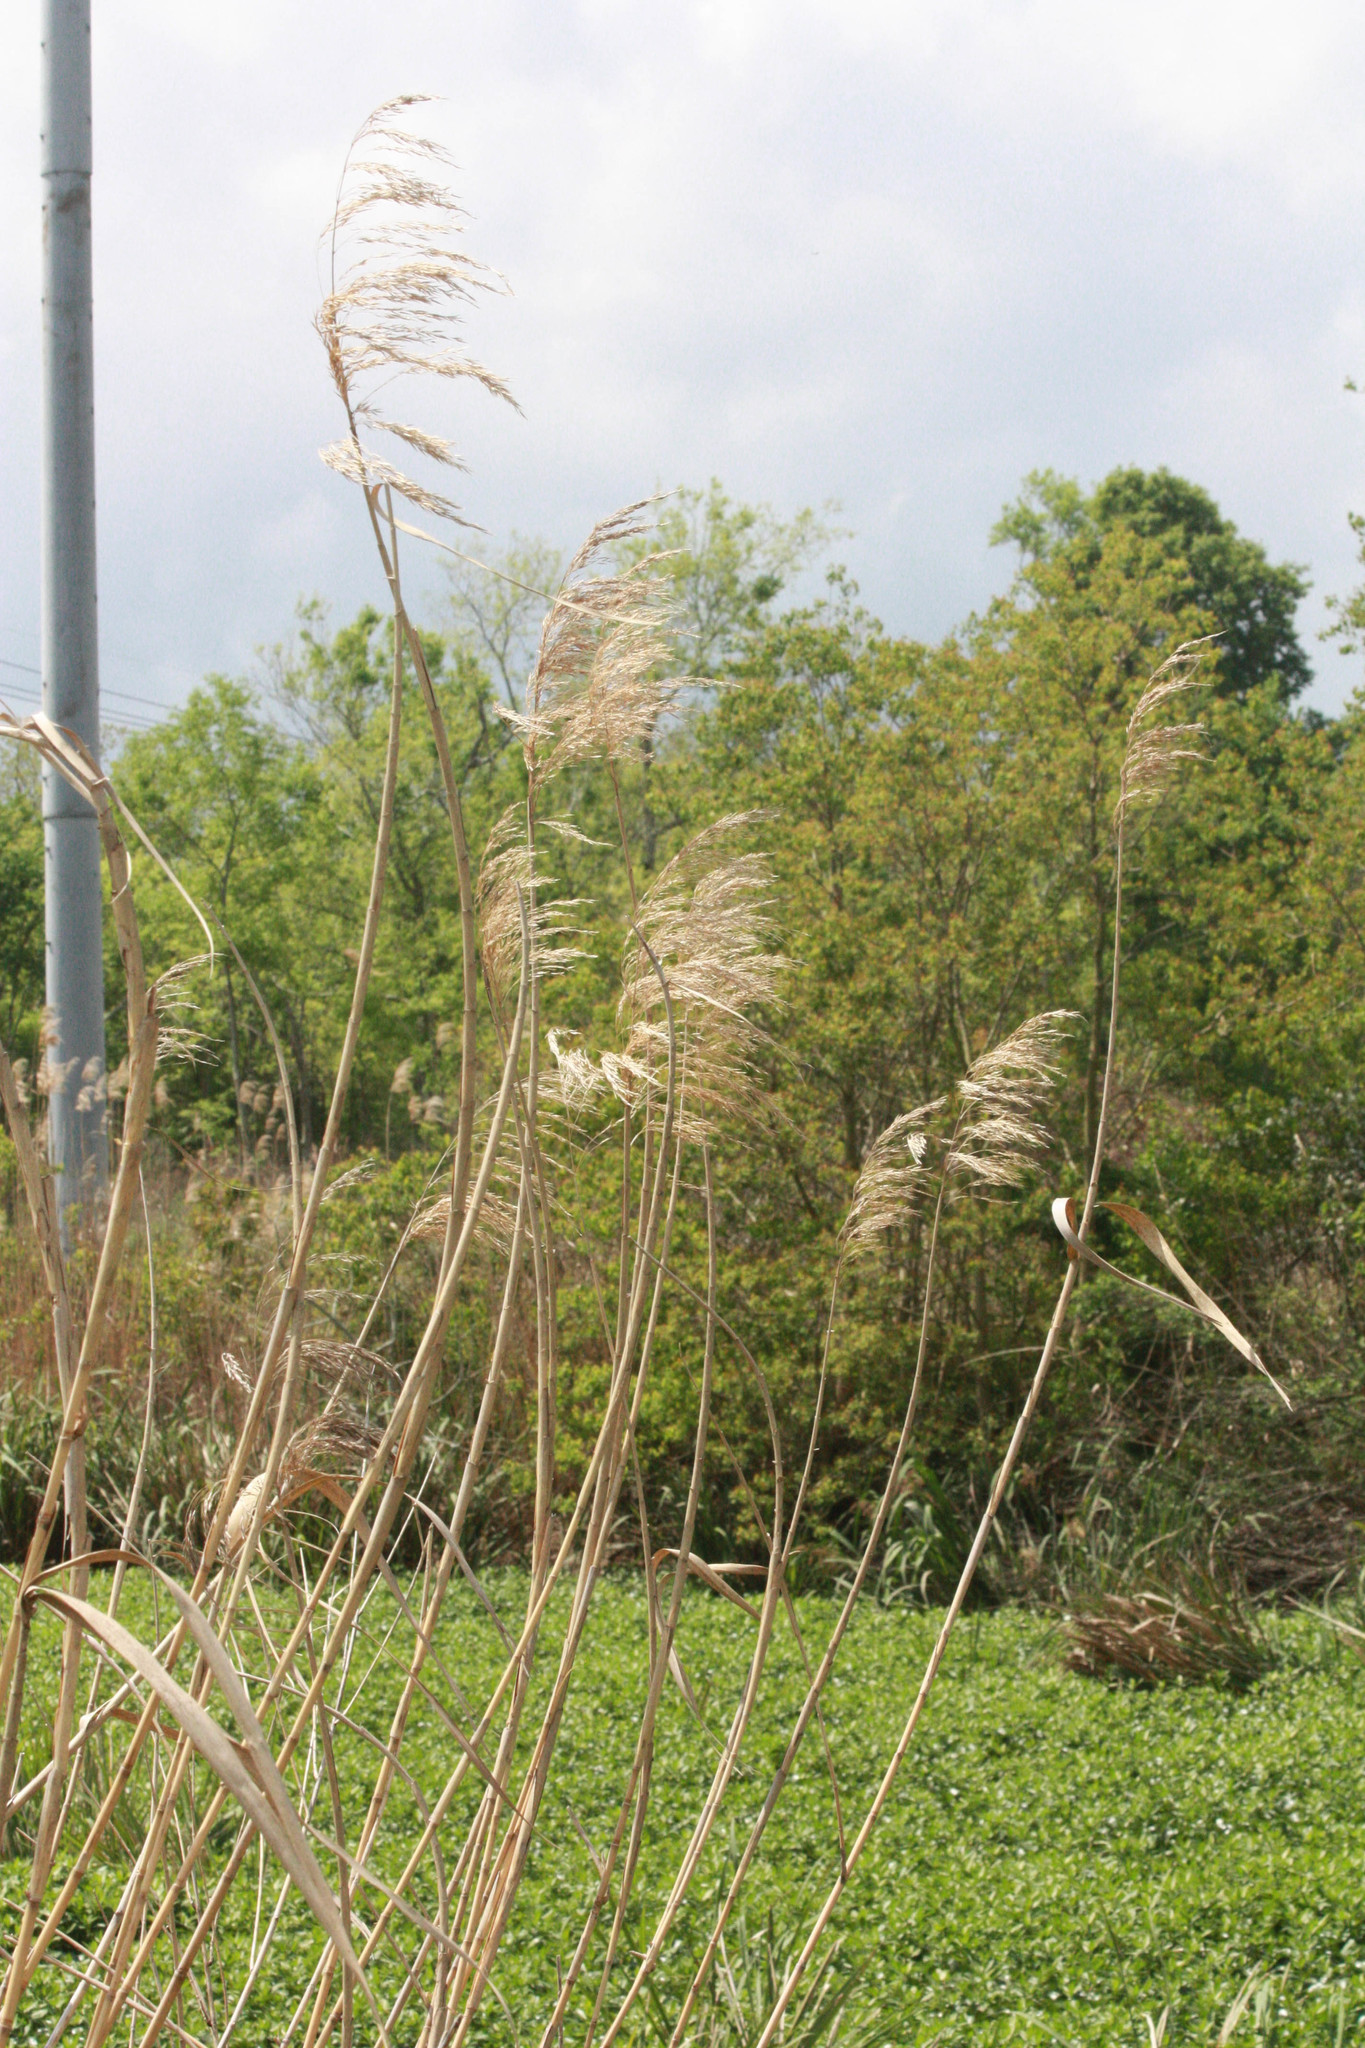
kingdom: Plantae
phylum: Tracheophyta
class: Liliopsida
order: Poales
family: Poaceae
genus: Phragmites
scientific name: Phragmites australis
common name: Common reed
